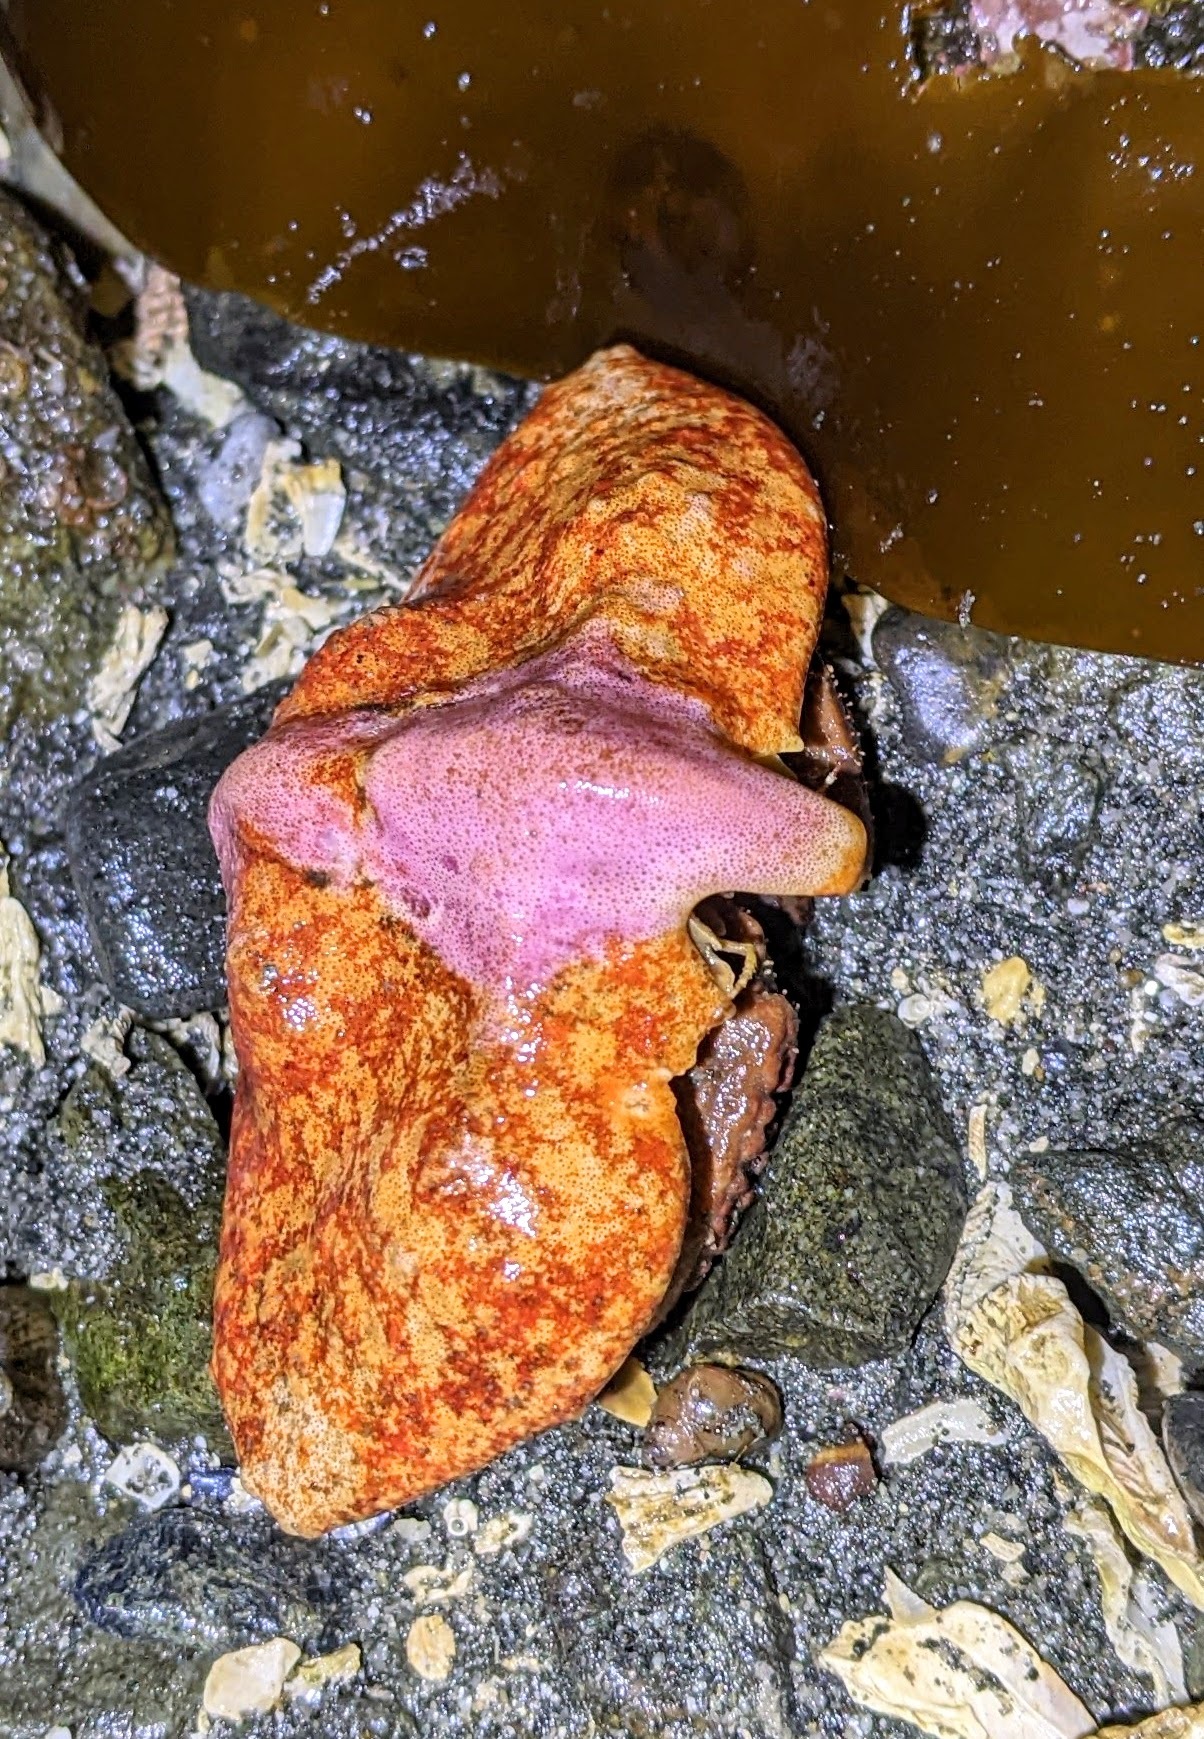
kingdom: Animalia
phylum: Arthropoda
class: Malacostraca
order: Decapoda
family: Lithodidae
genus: Cryptolithodes
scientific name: Cryptolithodes typicus
